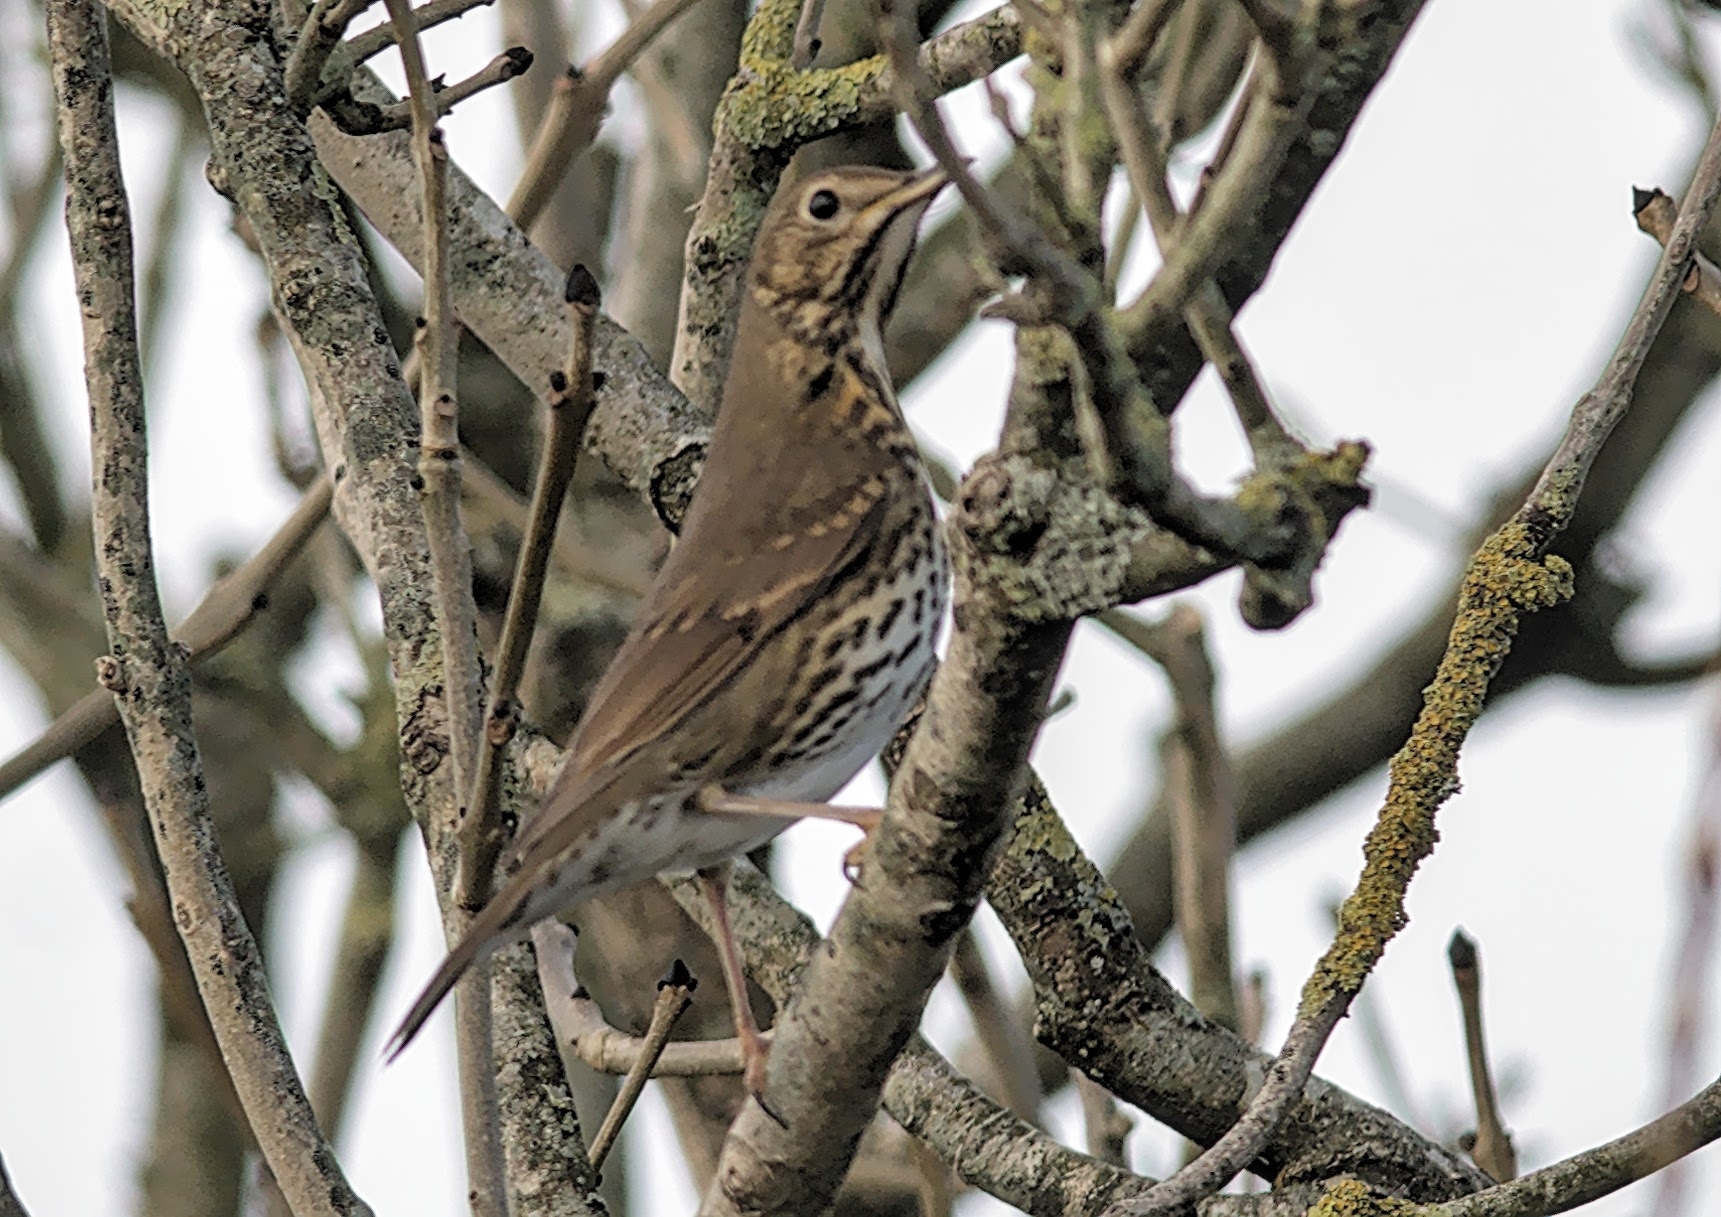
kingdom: Animalia
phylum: Chordata
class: Aves
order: Passeriformes
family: Turdidae
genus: Turdus
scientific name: Turdus philomelos
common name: Song thrush
